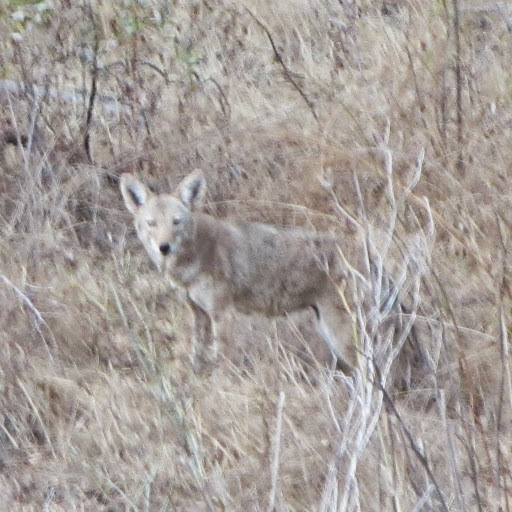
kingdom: Animalia
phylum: Chordata
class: Mammalia
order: Carnivora
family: Canidae
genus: Canis
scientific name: Canis latrans
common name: Coyote
